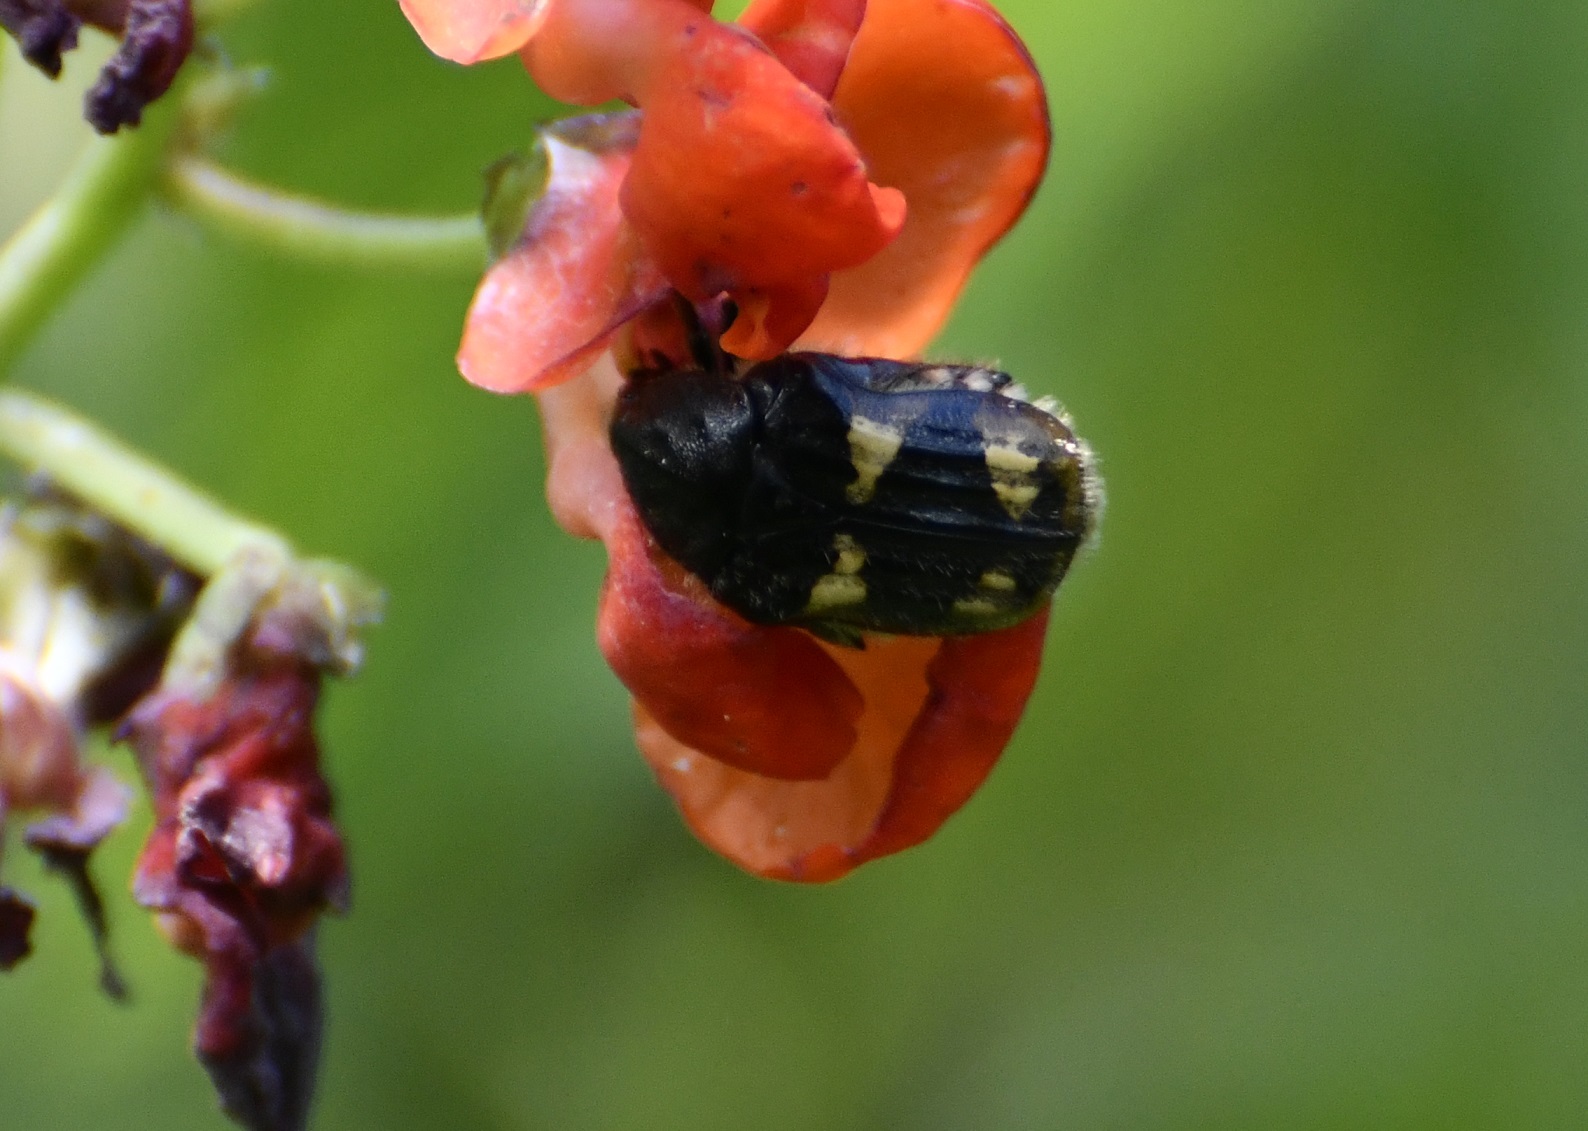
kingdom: Animalia
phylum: Arthropoda
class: Insecta
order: Coleoptera
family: Scarabaeidae
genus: Euphoria
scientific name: Euphoria basalis
